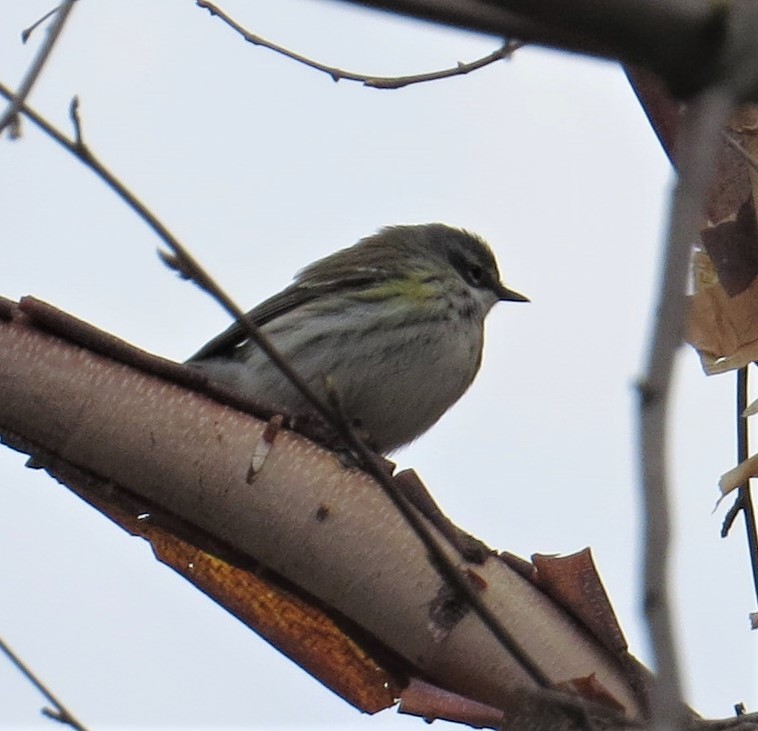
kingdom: Animalia
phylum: Chordata
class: Aves
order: Passeriformes
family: Parulidae
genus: Setophaga
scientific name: Setophaga coronata
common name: Myrtle warbler
